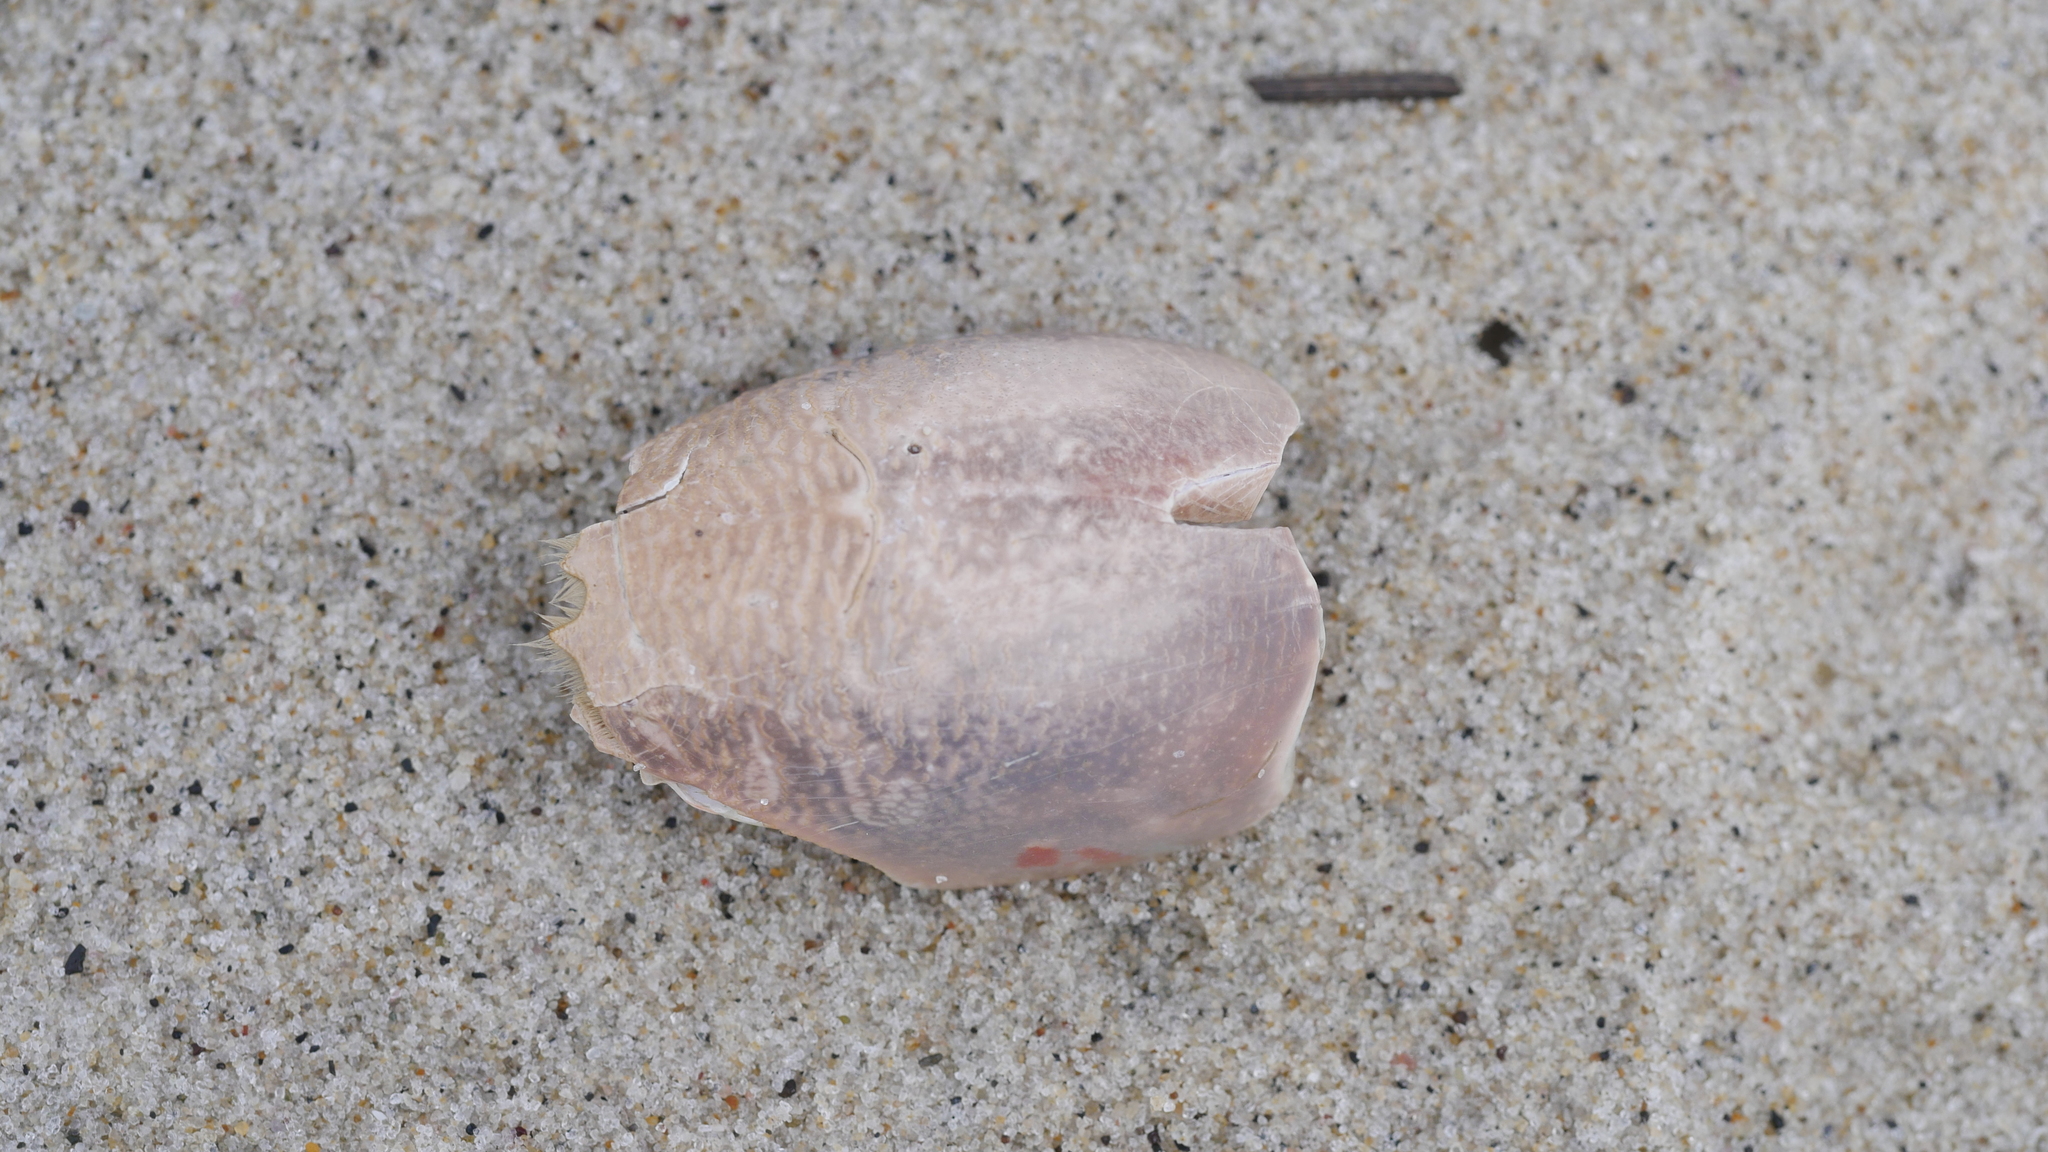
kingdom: Animalia
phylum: Arthropoda
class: Malacostraca
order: Decapoda
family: Hippidae
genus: Emerita
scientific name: Emerita talpoida
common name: Atlantic sand crab
